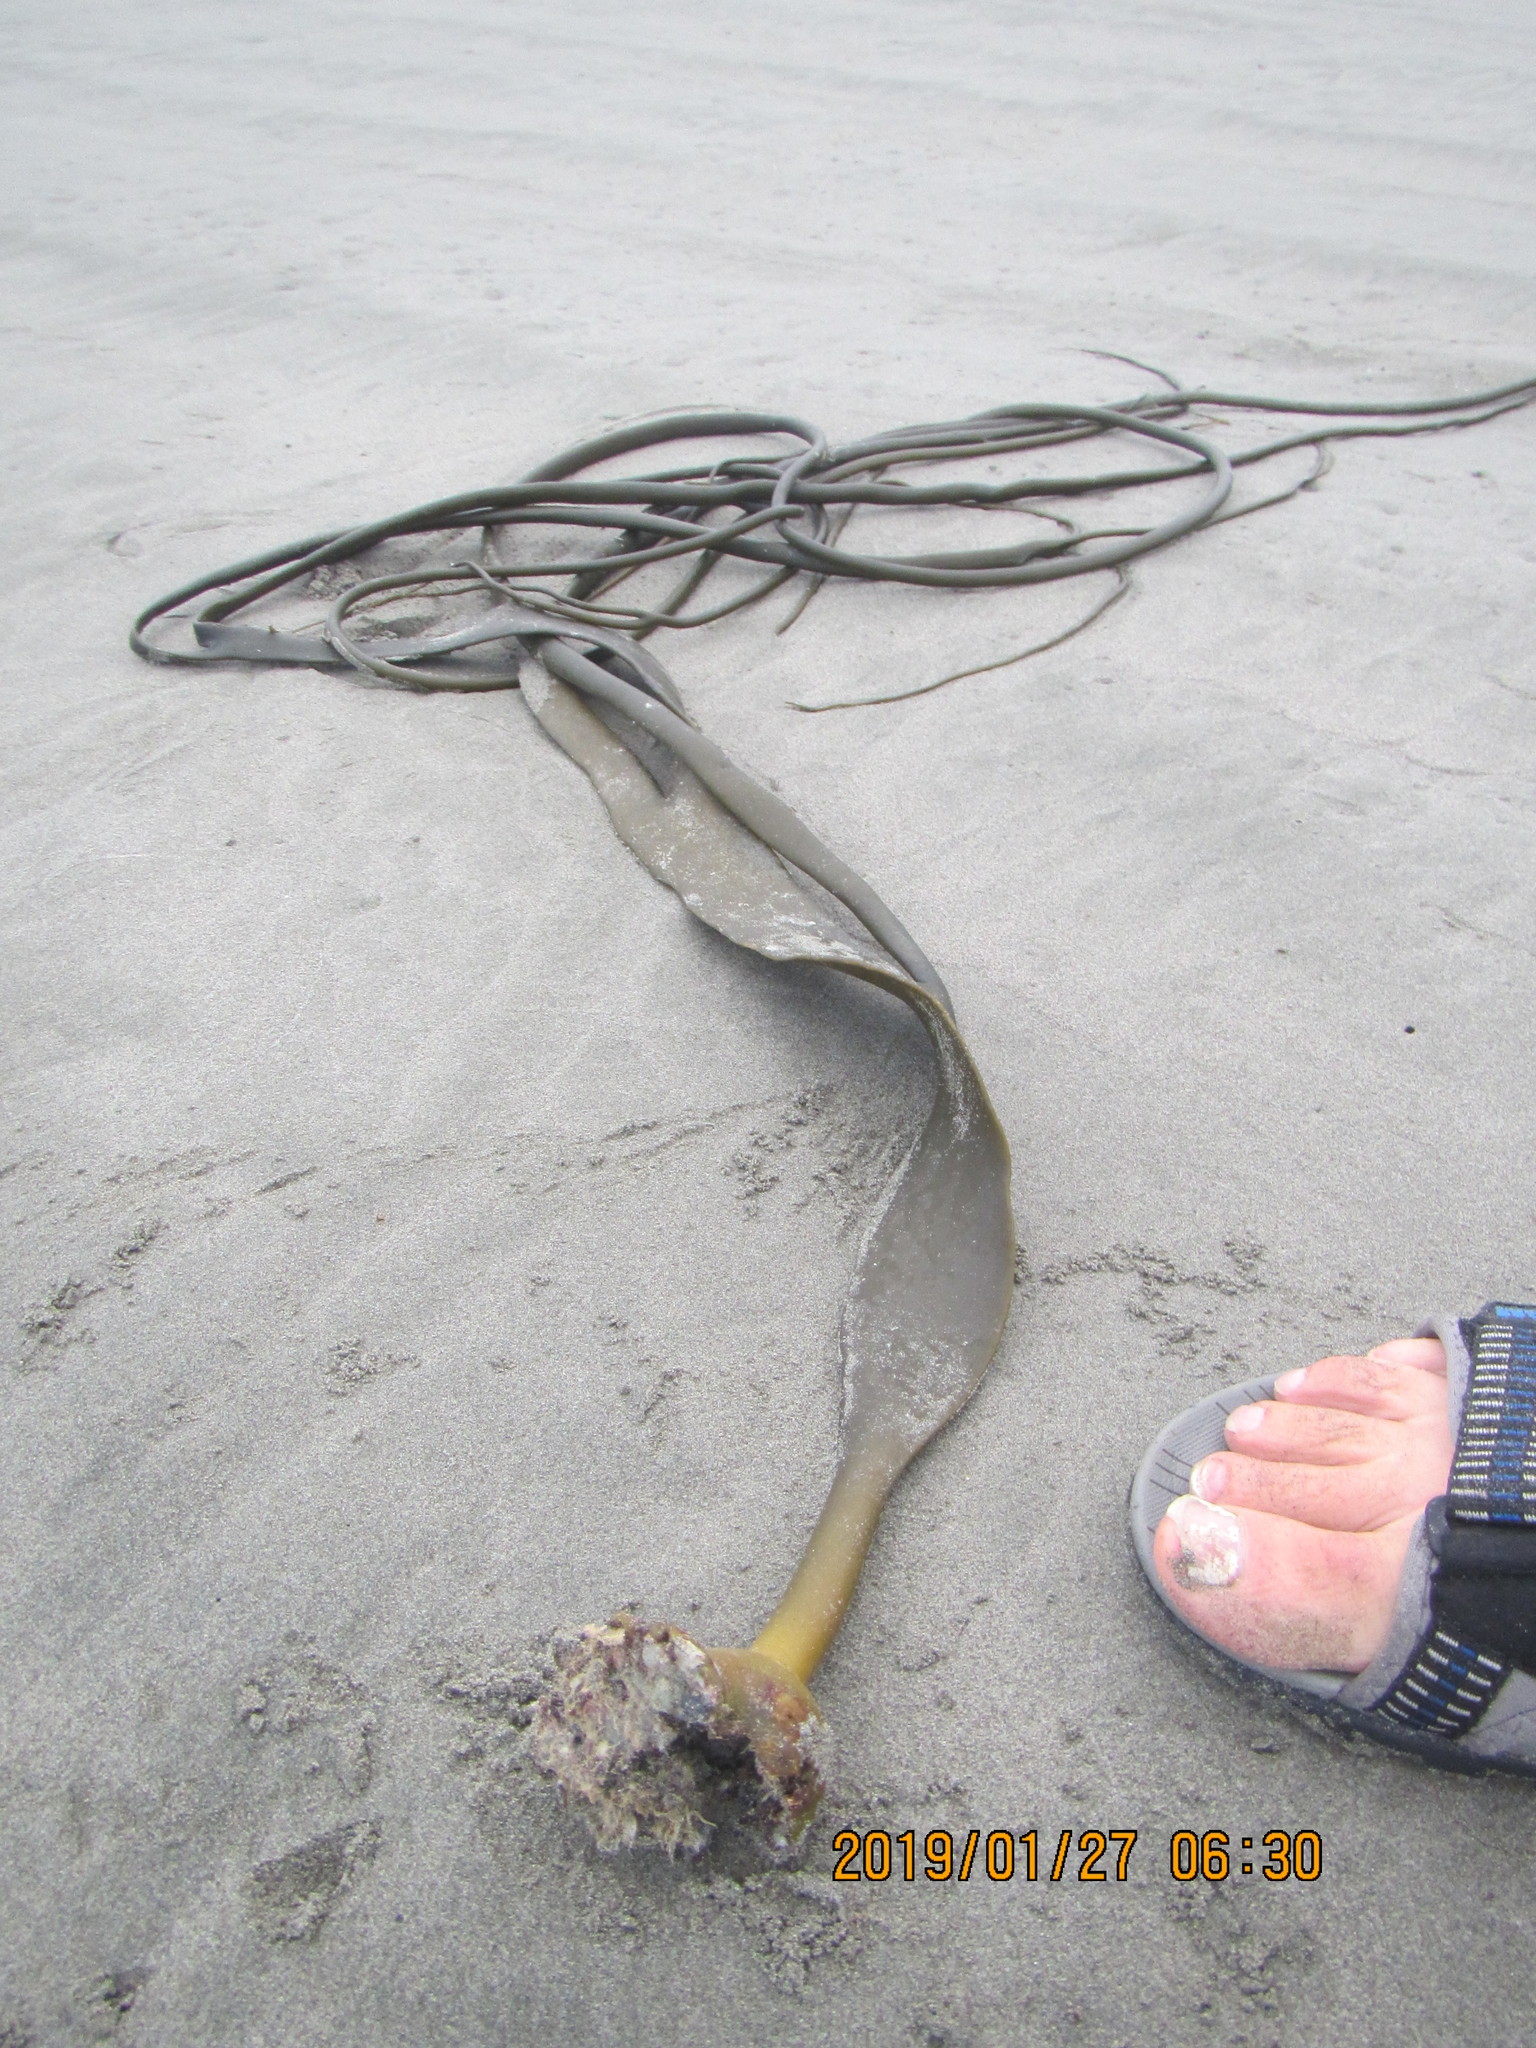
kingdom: Chromista
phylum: Ochrophyta
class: Phaeophyceae
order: Fucales
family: Durvillaeaceae
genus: Durvillaea
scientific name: Durvillaea antarctica
